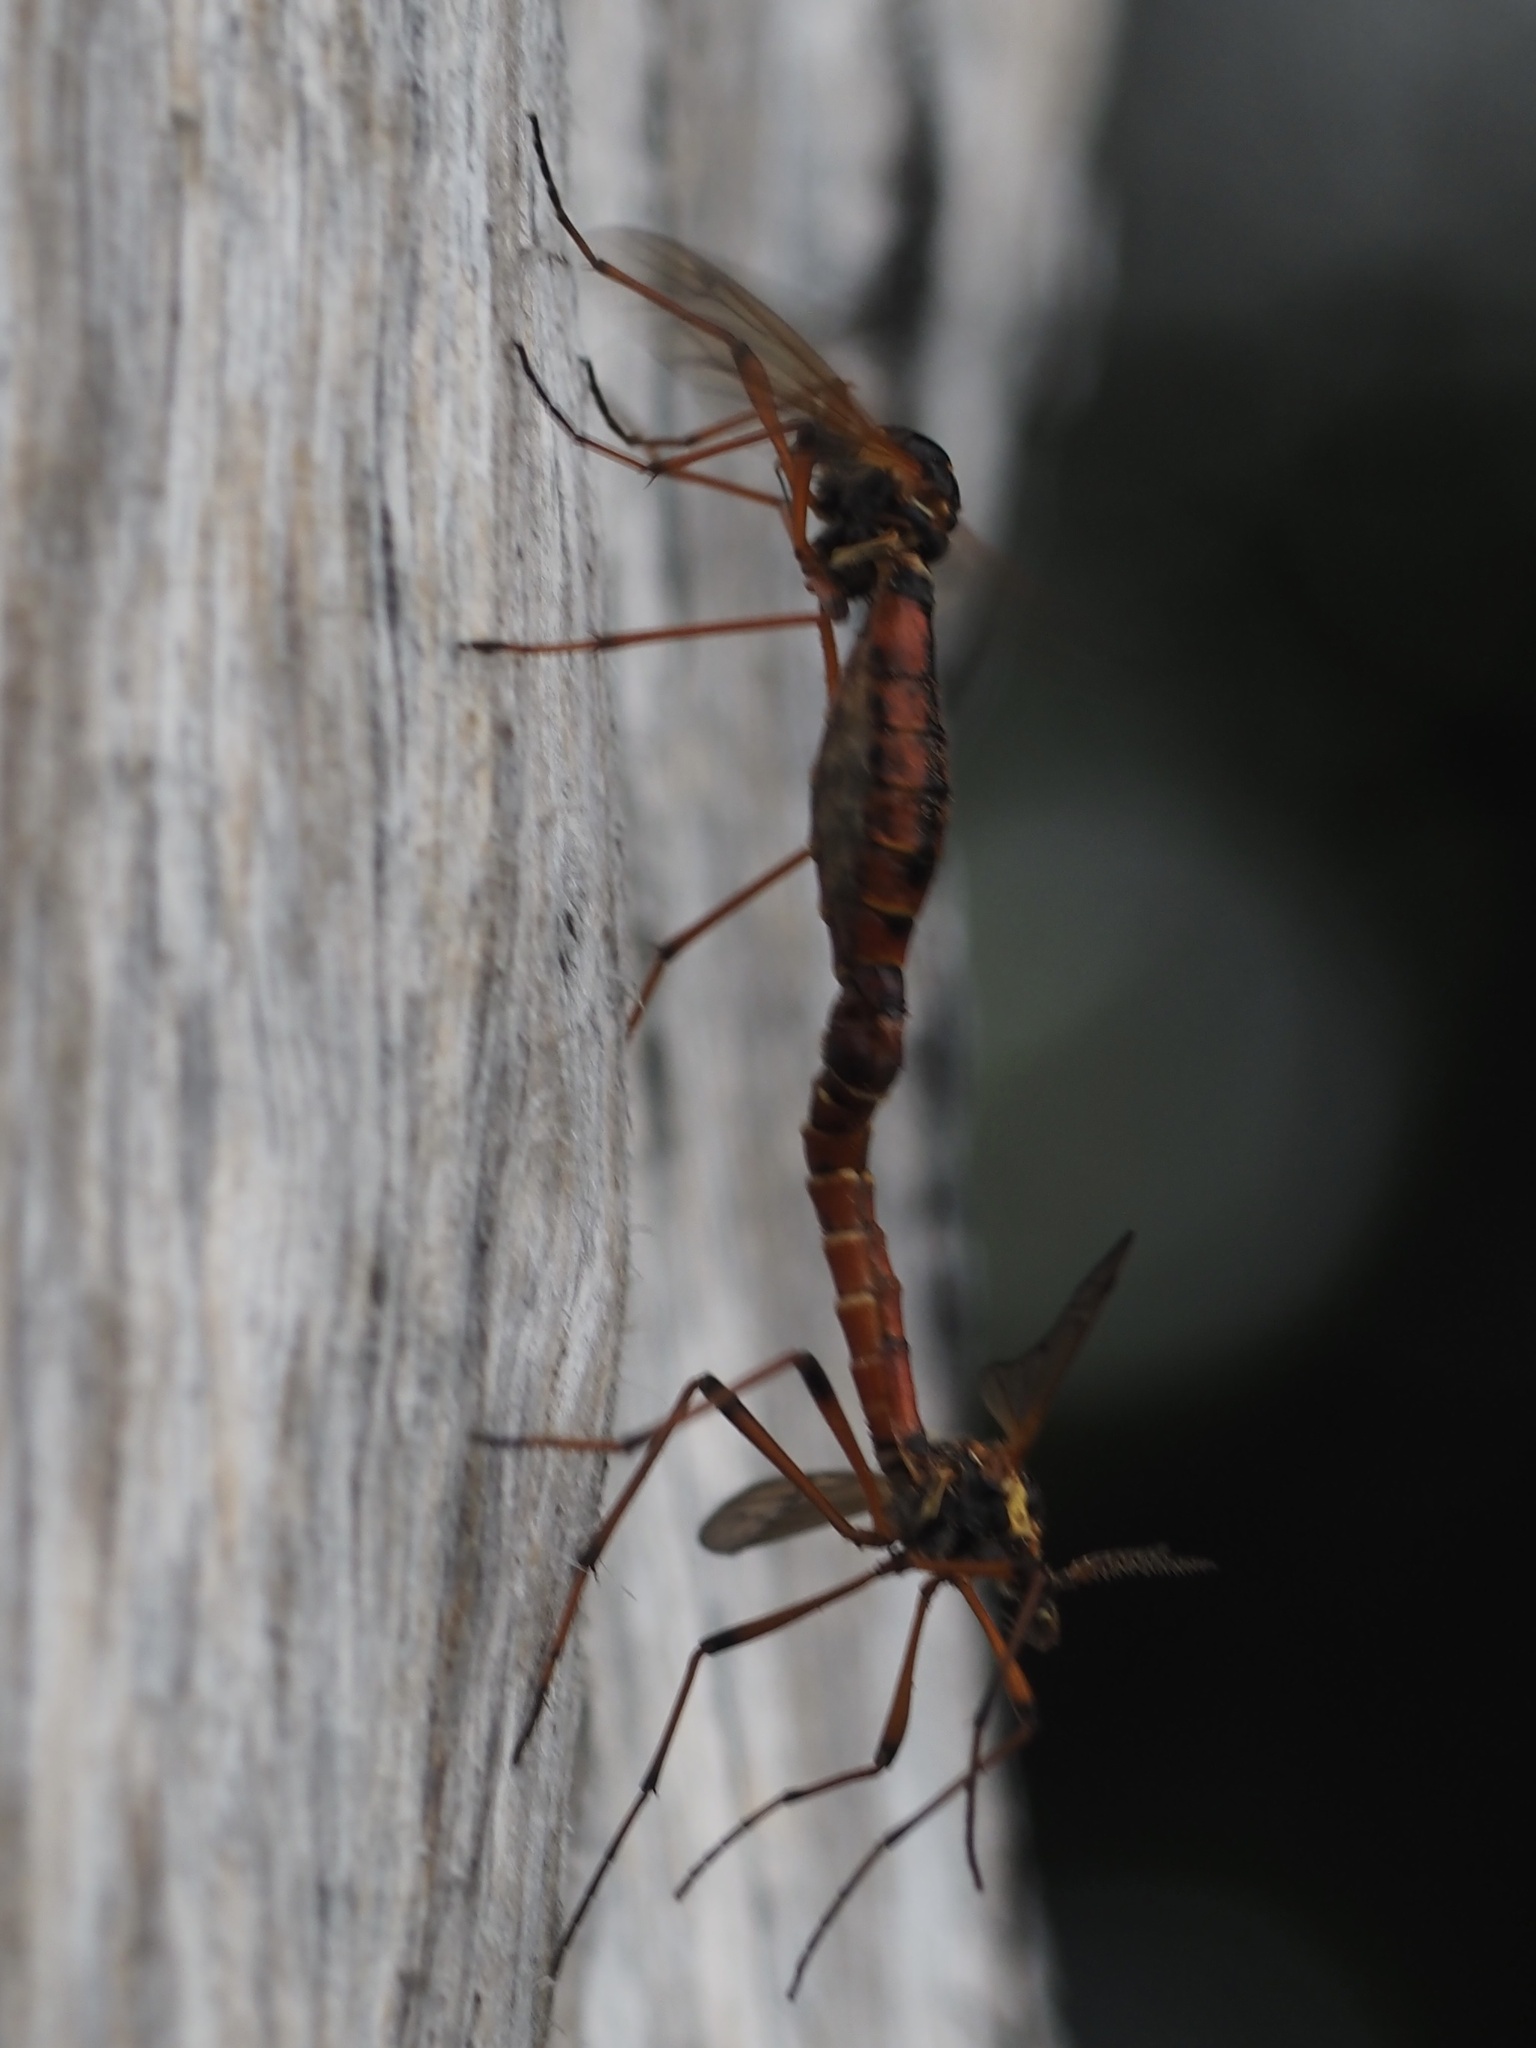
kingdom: Animalia
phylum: Arthropoda
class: Insecta
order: Diptera
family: Tipulidae
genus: Phoroctenia
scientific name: Phoroctenia vittata
